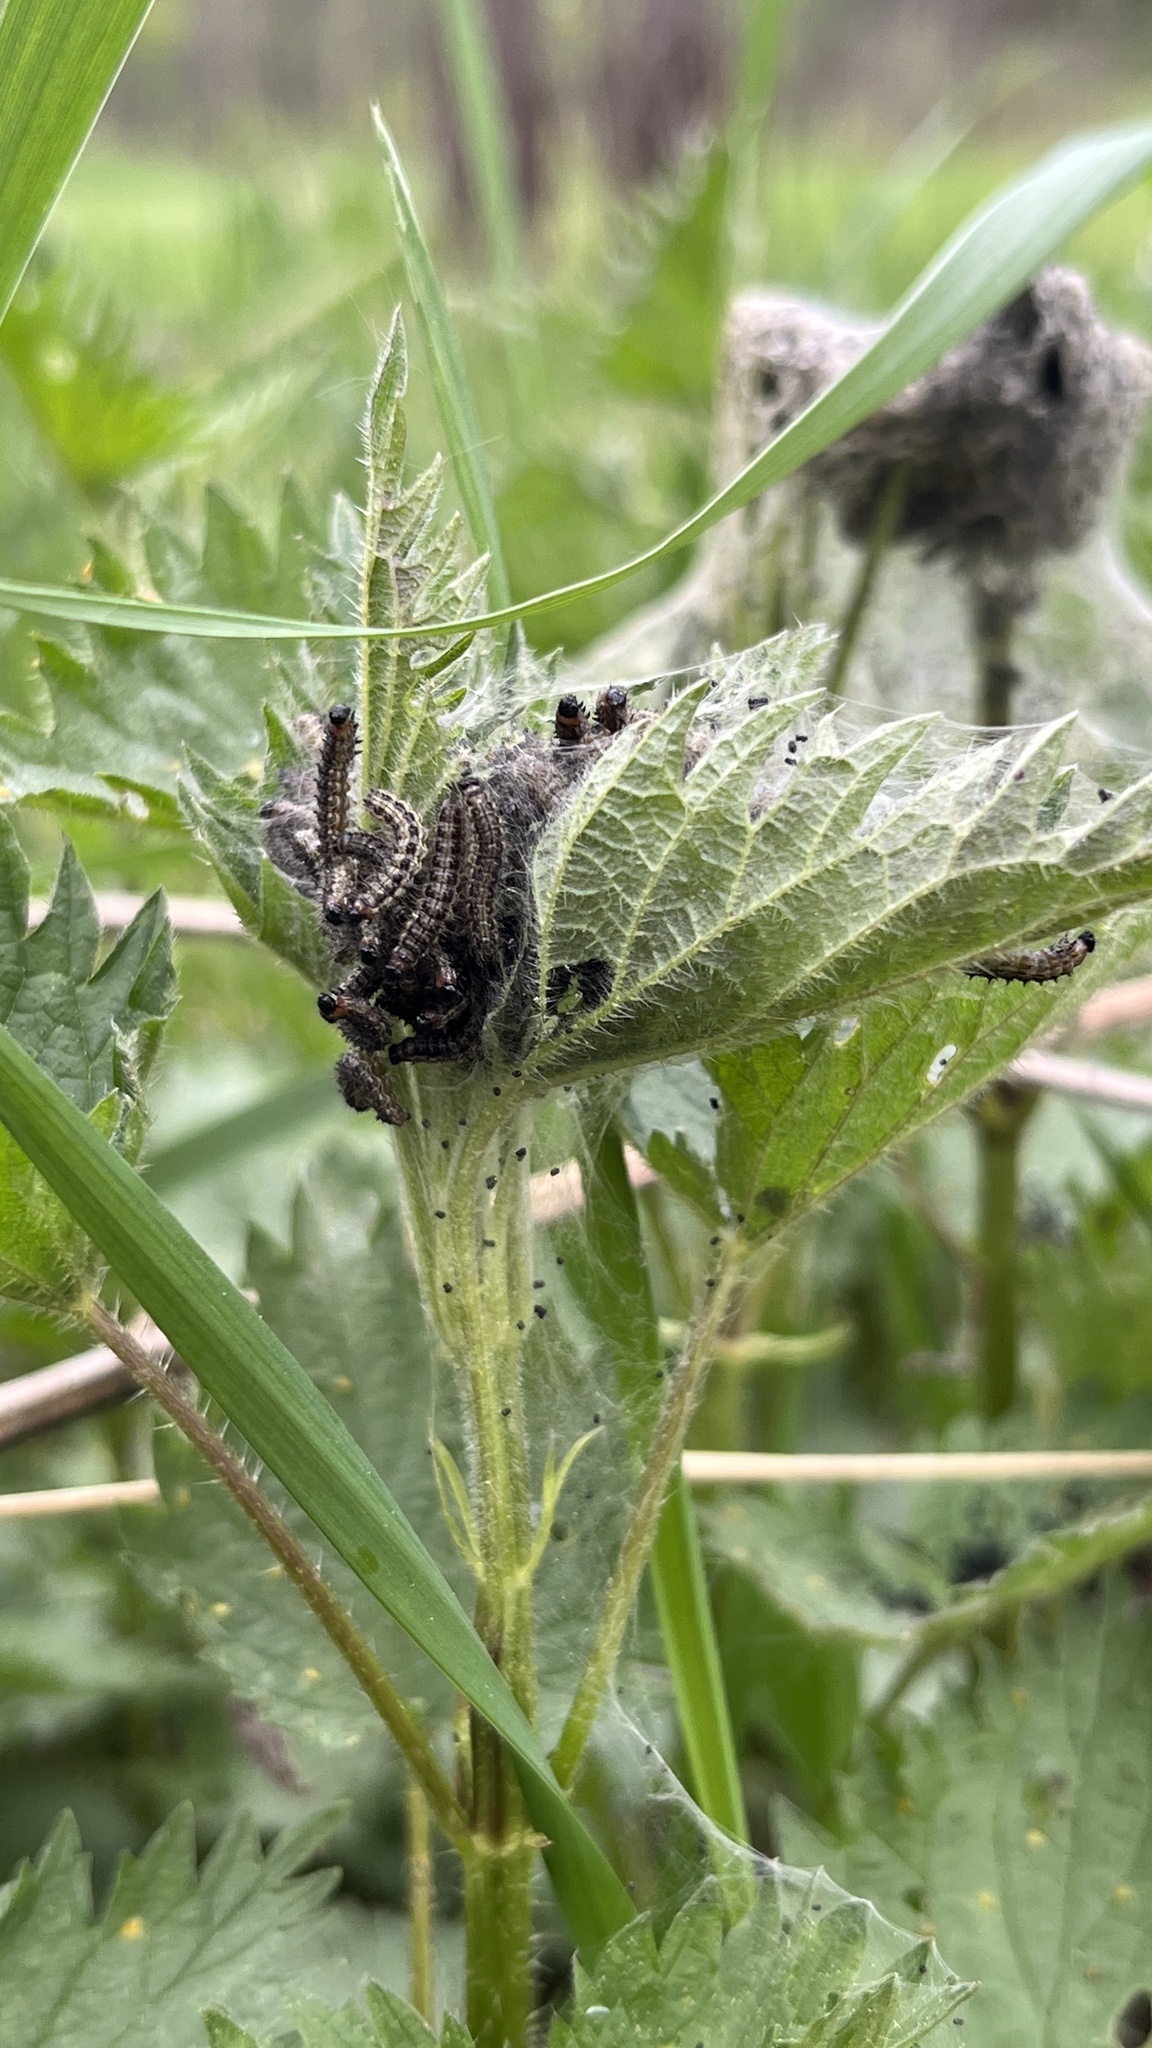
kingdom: Animalia
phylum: Arthropoda
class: Insecta
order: Lepidoptera
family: Nymphalidae
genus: Aglais
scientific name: Aglais urticae
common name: Small tortoiseshell
